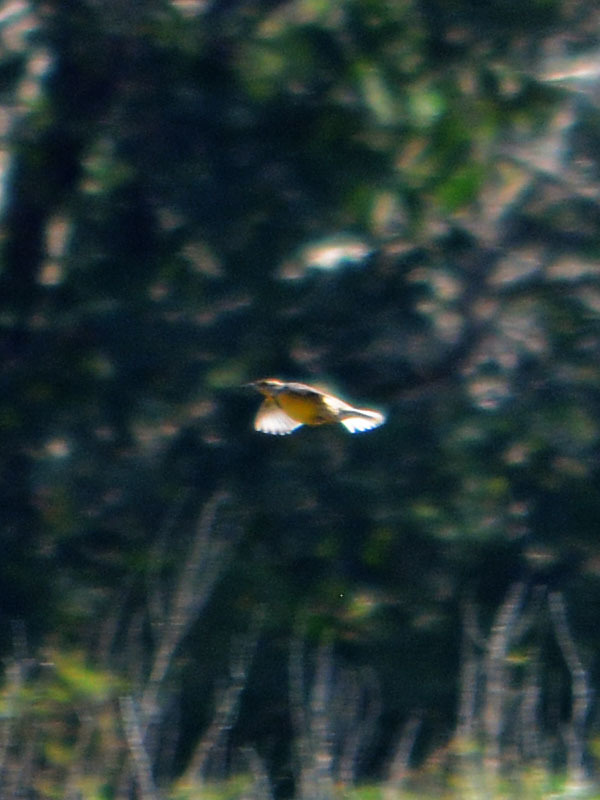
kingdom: Animalia
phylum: Chordata
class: Aves
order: Passeriformes
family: Icteridae
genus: Sturnella
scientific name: Sturnella magna
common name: Eastern meadowlark
